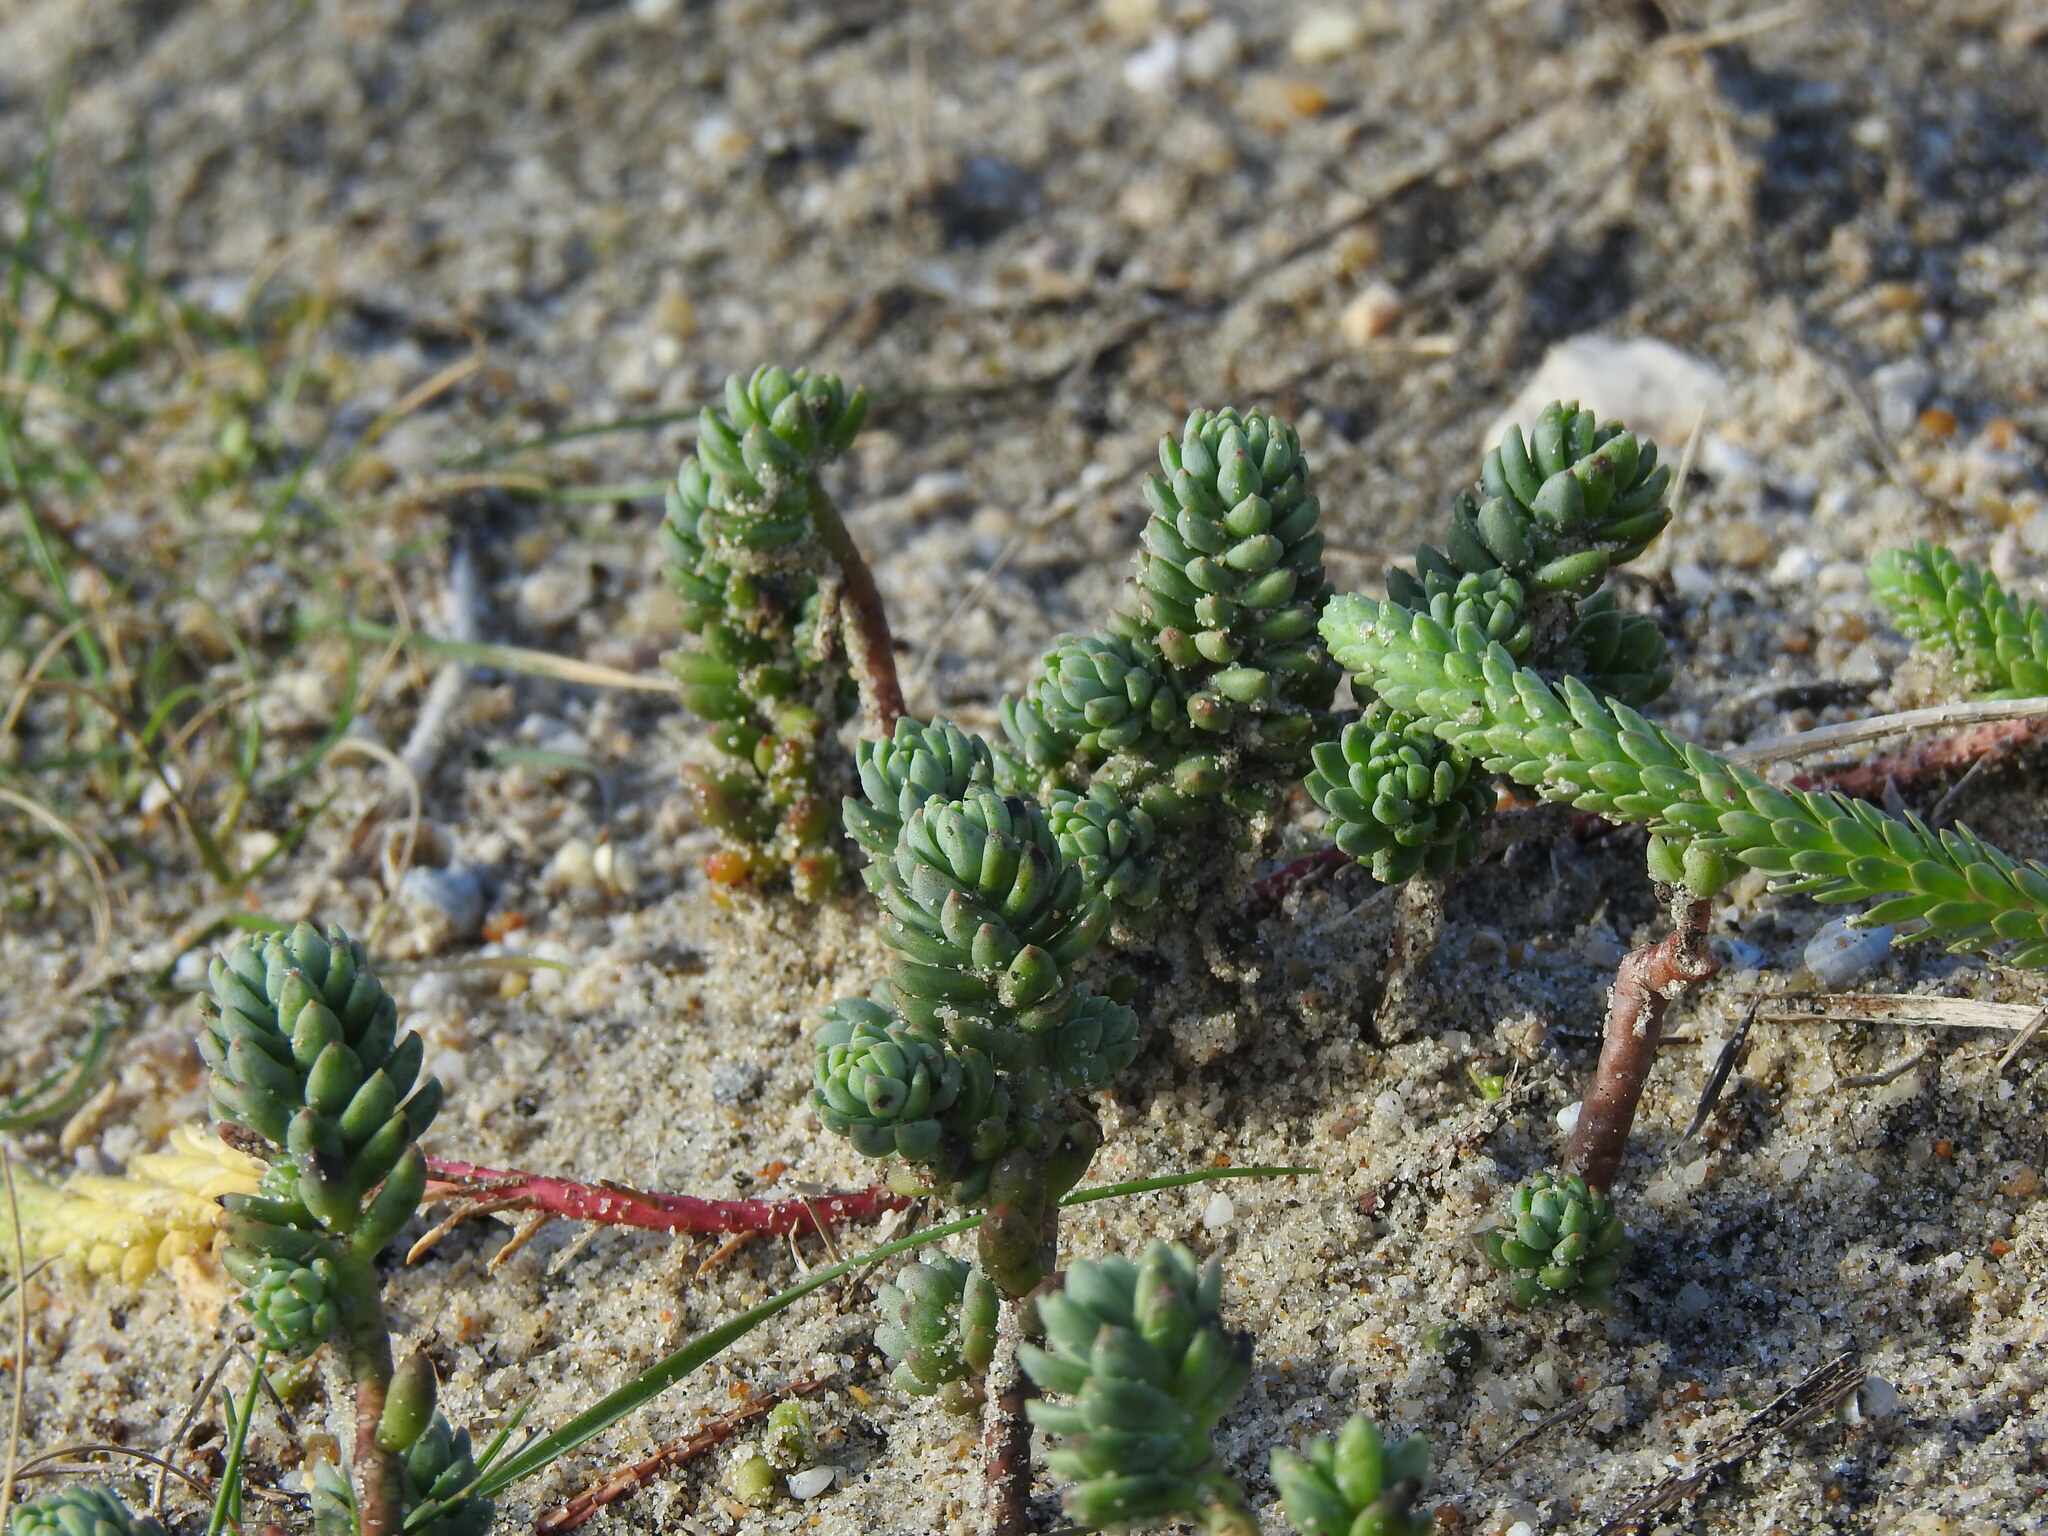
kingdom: Plantae
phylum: Tracheophyta
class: Magnoliopsida
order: Saxifragales
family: Crassulaceae
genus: Petrosedum
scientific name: Petrosedum sediforme
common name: Pale stonecrop
